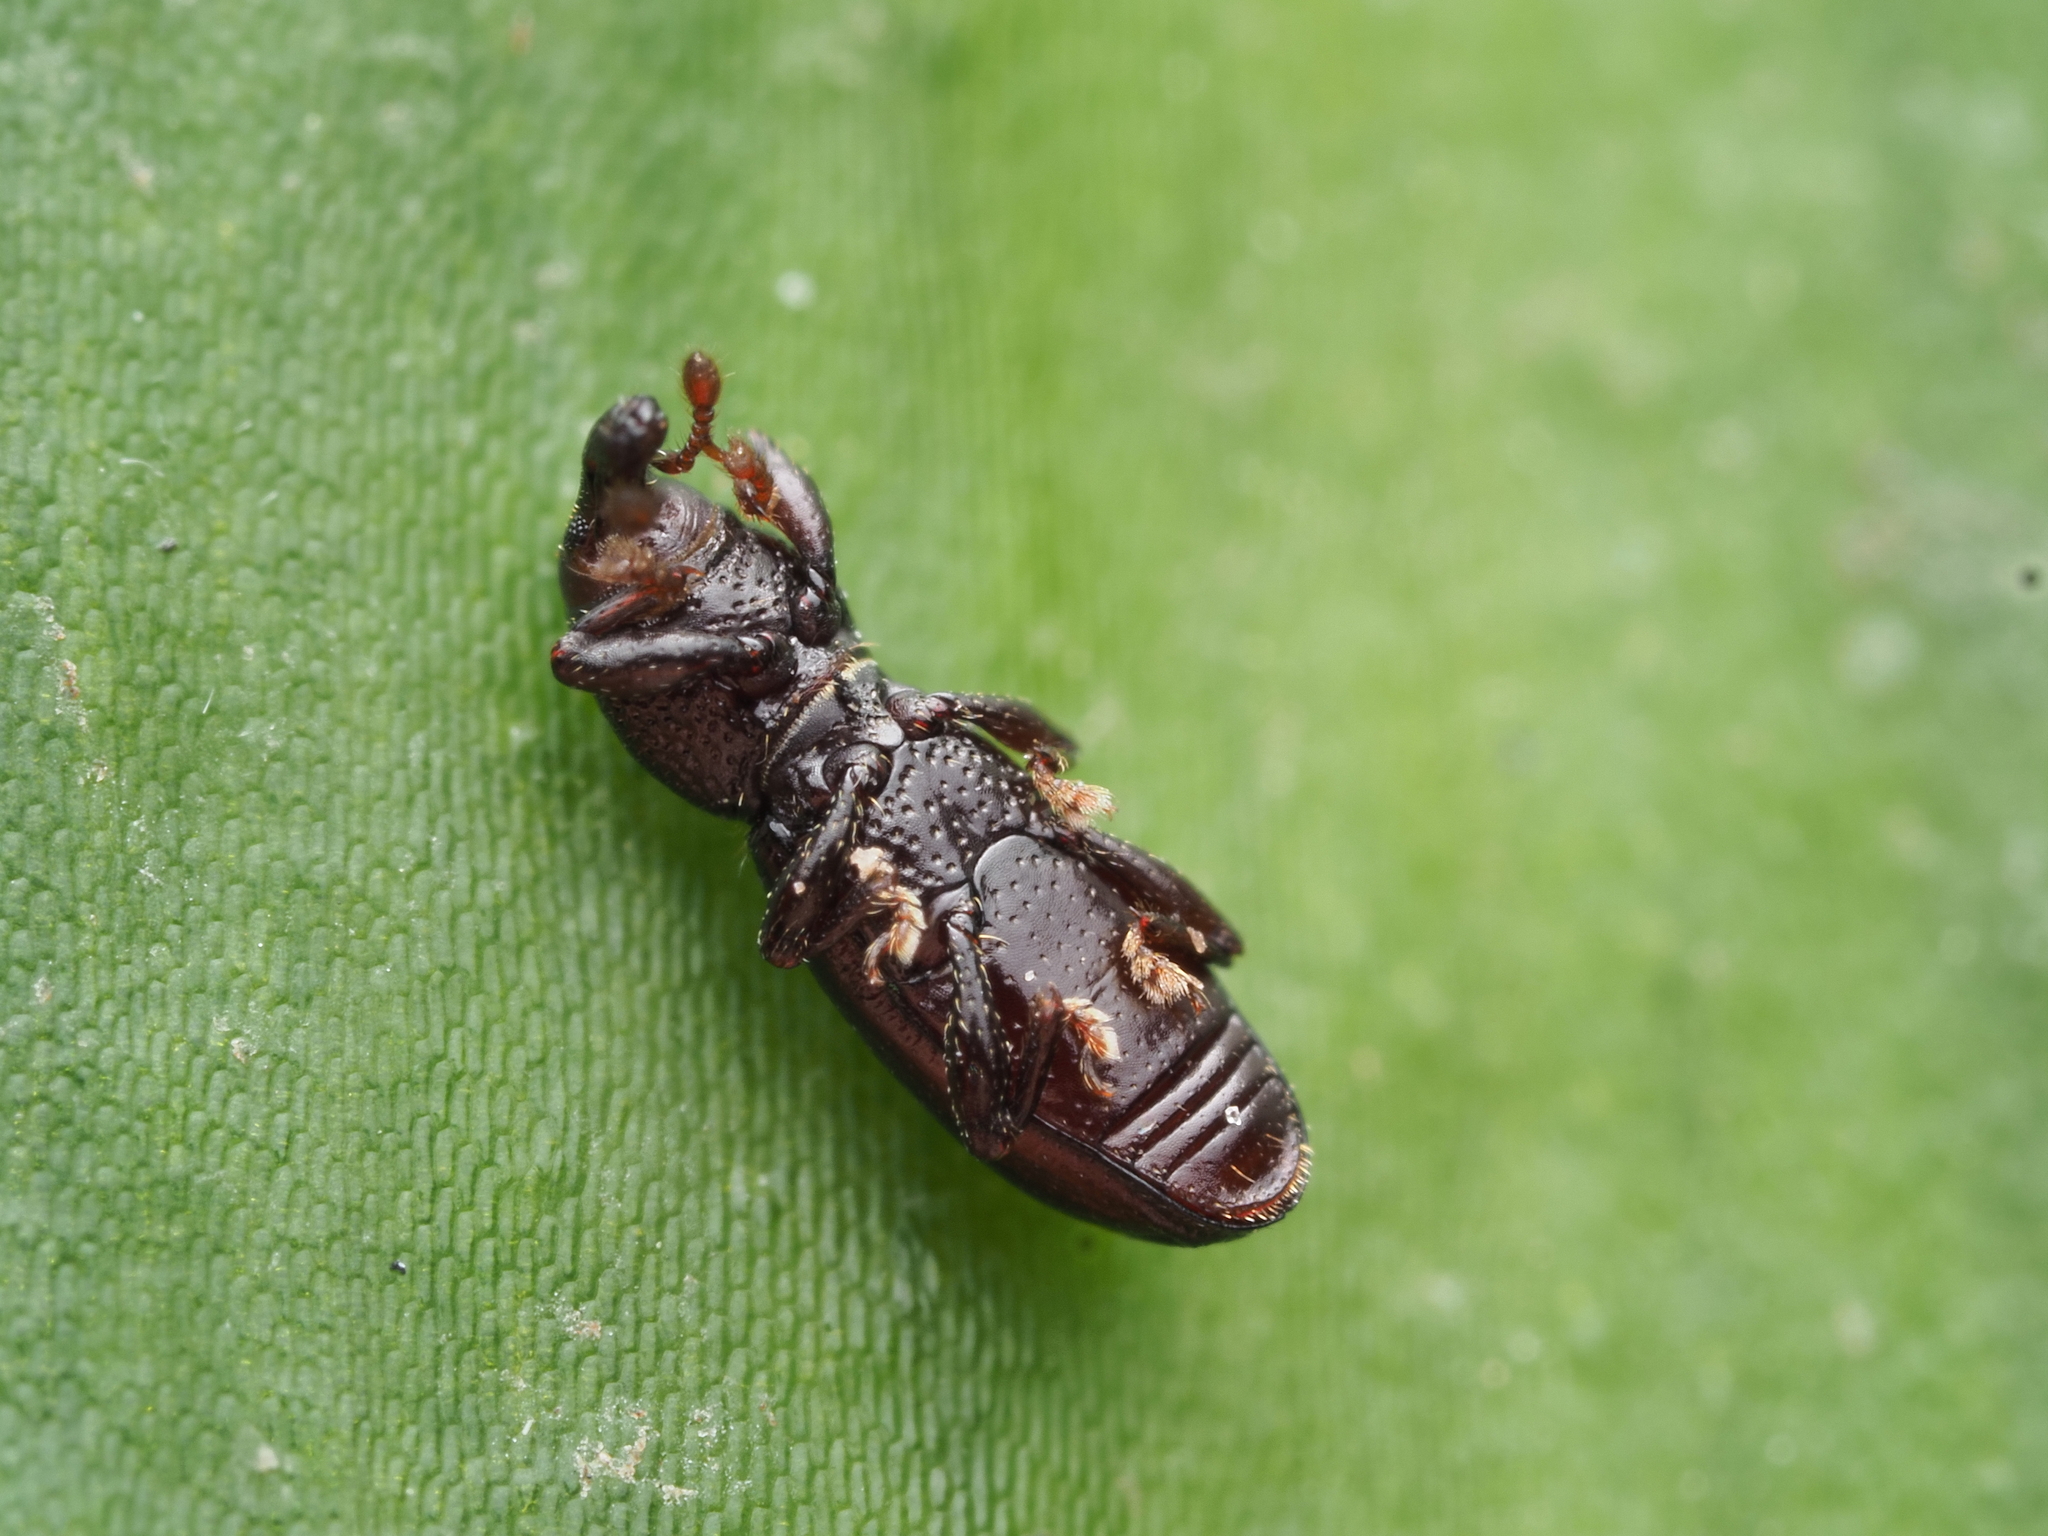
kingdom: Animalia
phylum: Arthropoda
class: Insecta
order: Coleoptera
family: Curculionidae
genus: Microtribus
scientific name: Microtribus huttoni
